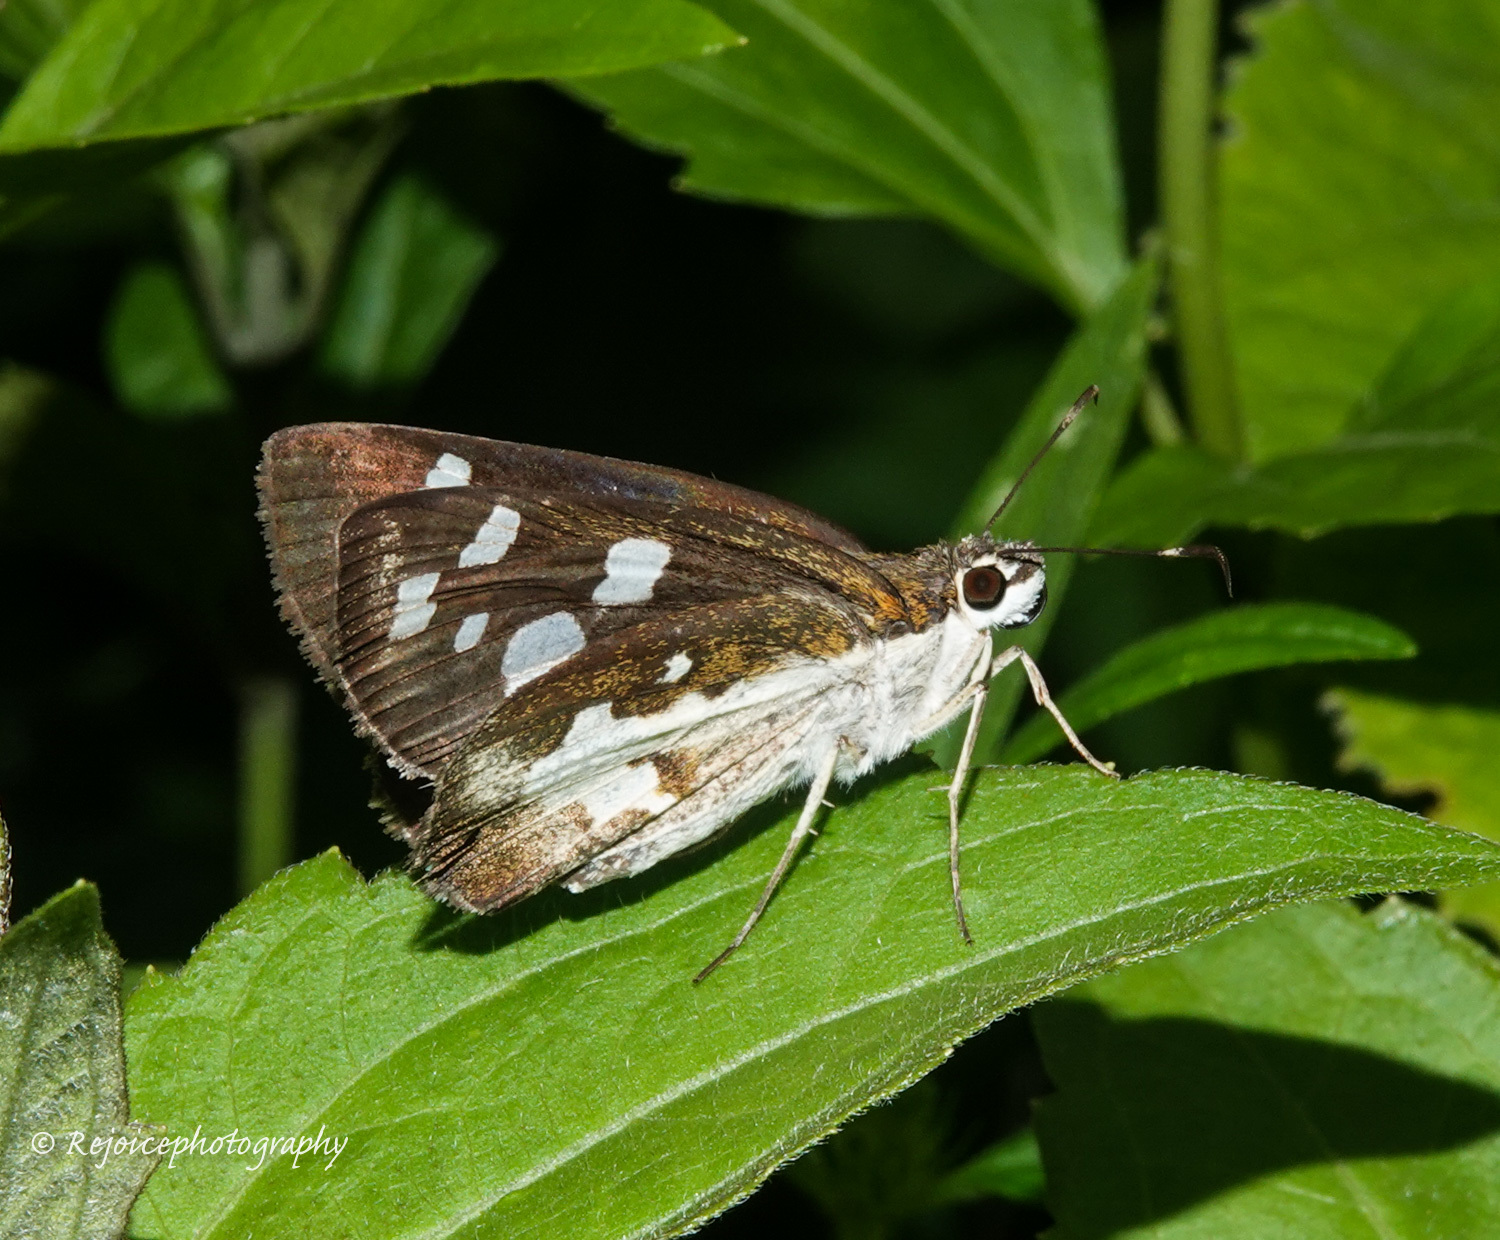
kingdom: Animalia
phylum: Arthropoda
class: Insecta
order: Lepidoptera
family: Hesperiidae
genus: Udaspes
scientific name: Udaspes folus
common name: Grass demon
